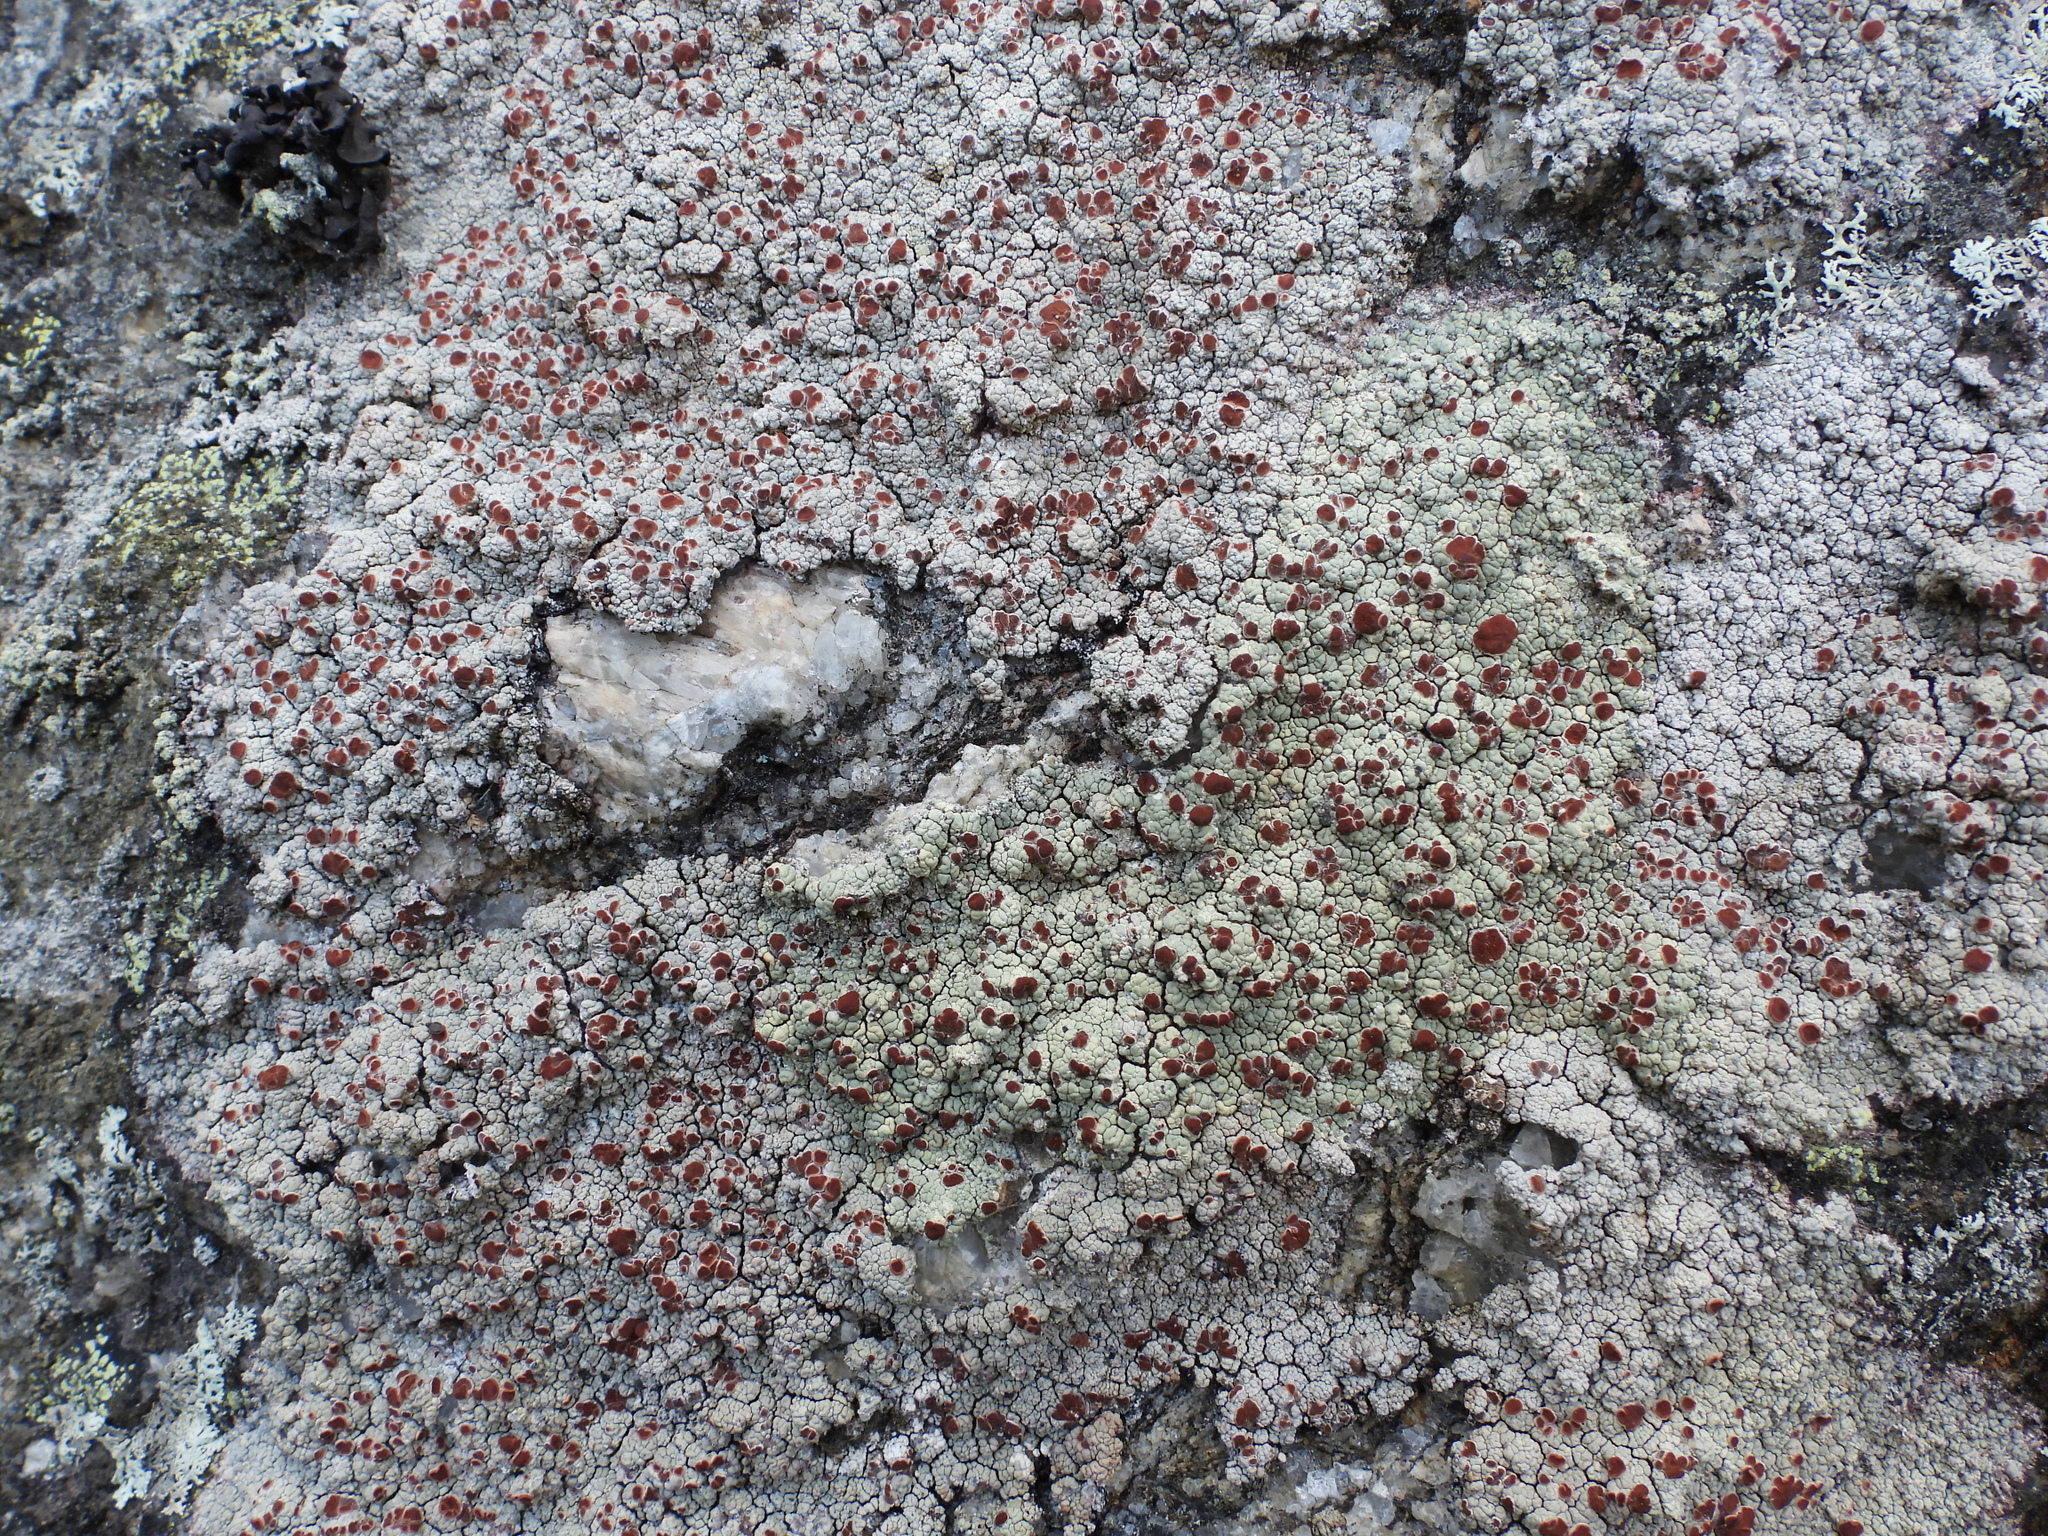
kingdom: Fungi
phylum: Ascomycota
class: Lecanoromycetes
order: Umbilicariales
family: Ophioparmaceae
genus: Ophioparma
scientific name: Ophioparma ventosa
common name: Blood-spot
